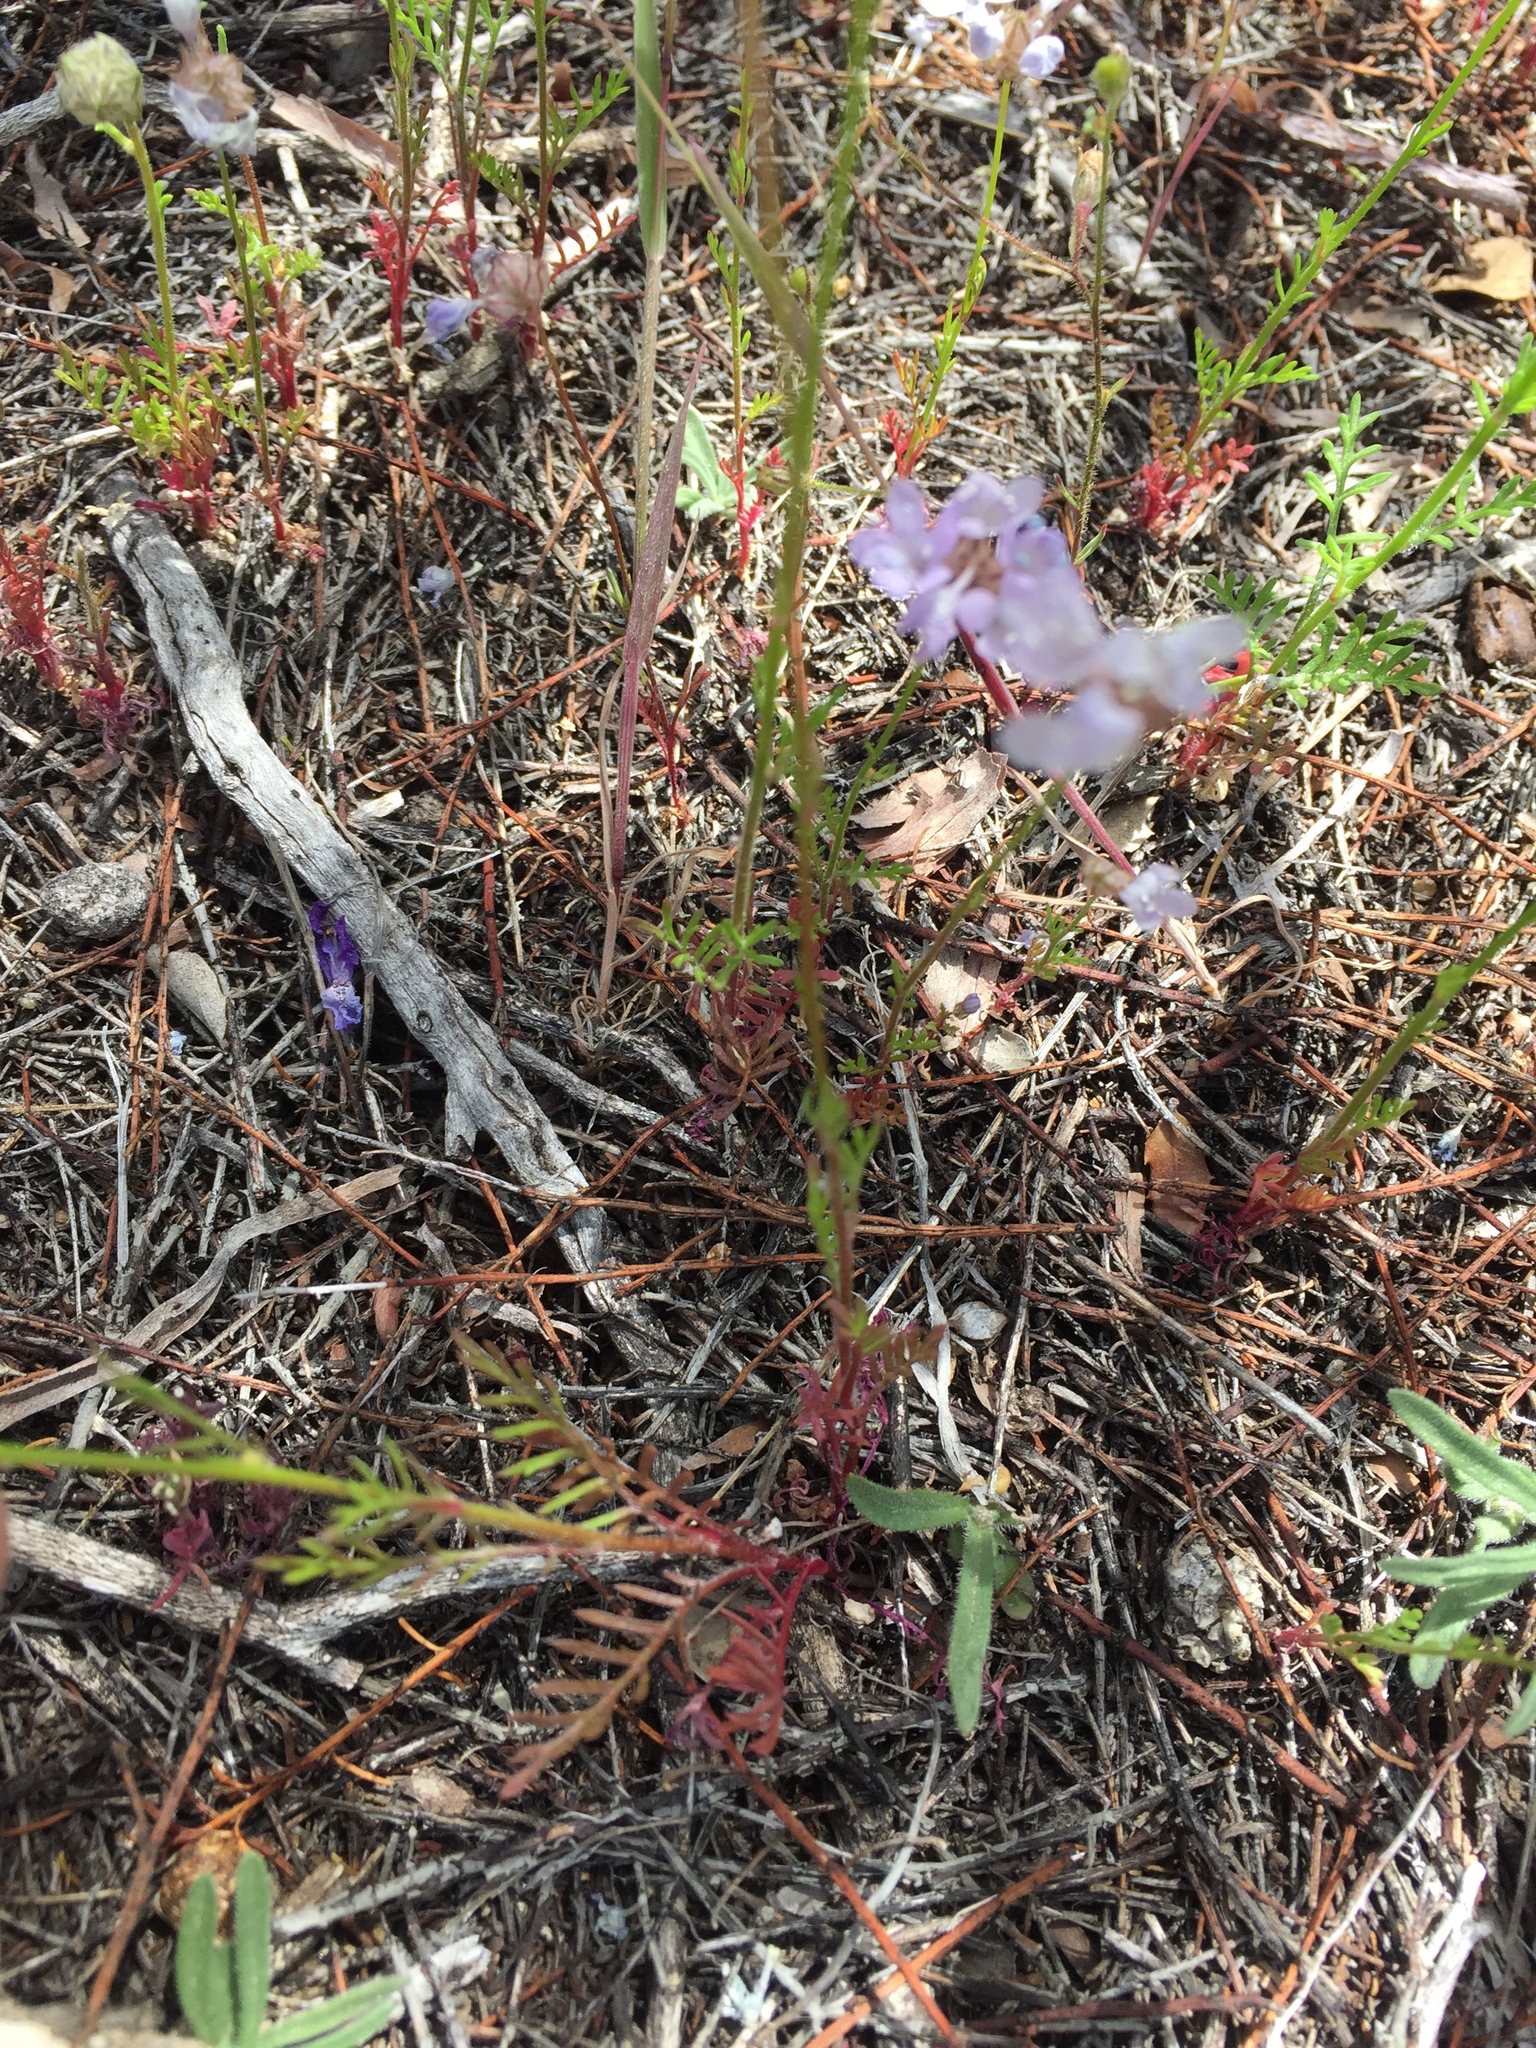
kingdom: Plantae
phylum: Tracheophyta
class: Magnoliopsida
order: Ericales
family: Polemoniaceae
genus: Gilia
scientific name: Gilia capitata
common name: Bluehead gilia
